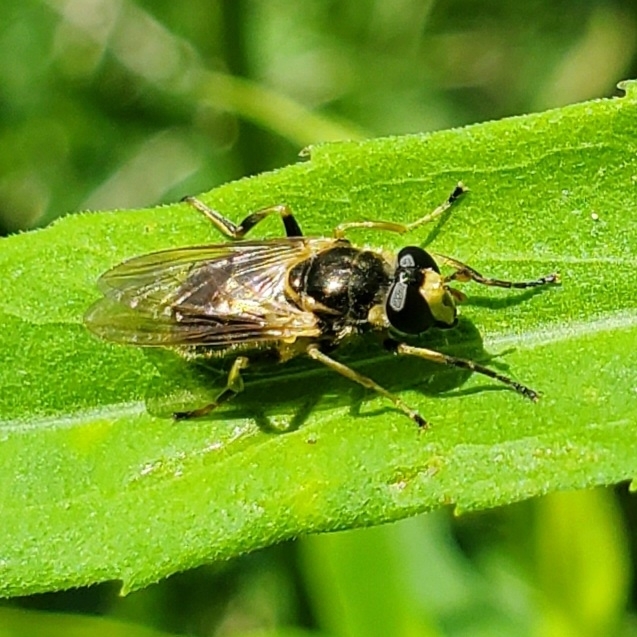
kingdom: Animalia
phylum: Arthropoda
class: Insecta
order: Diptera
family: Syrphidae
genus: Blera
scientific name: Blera pictipes
